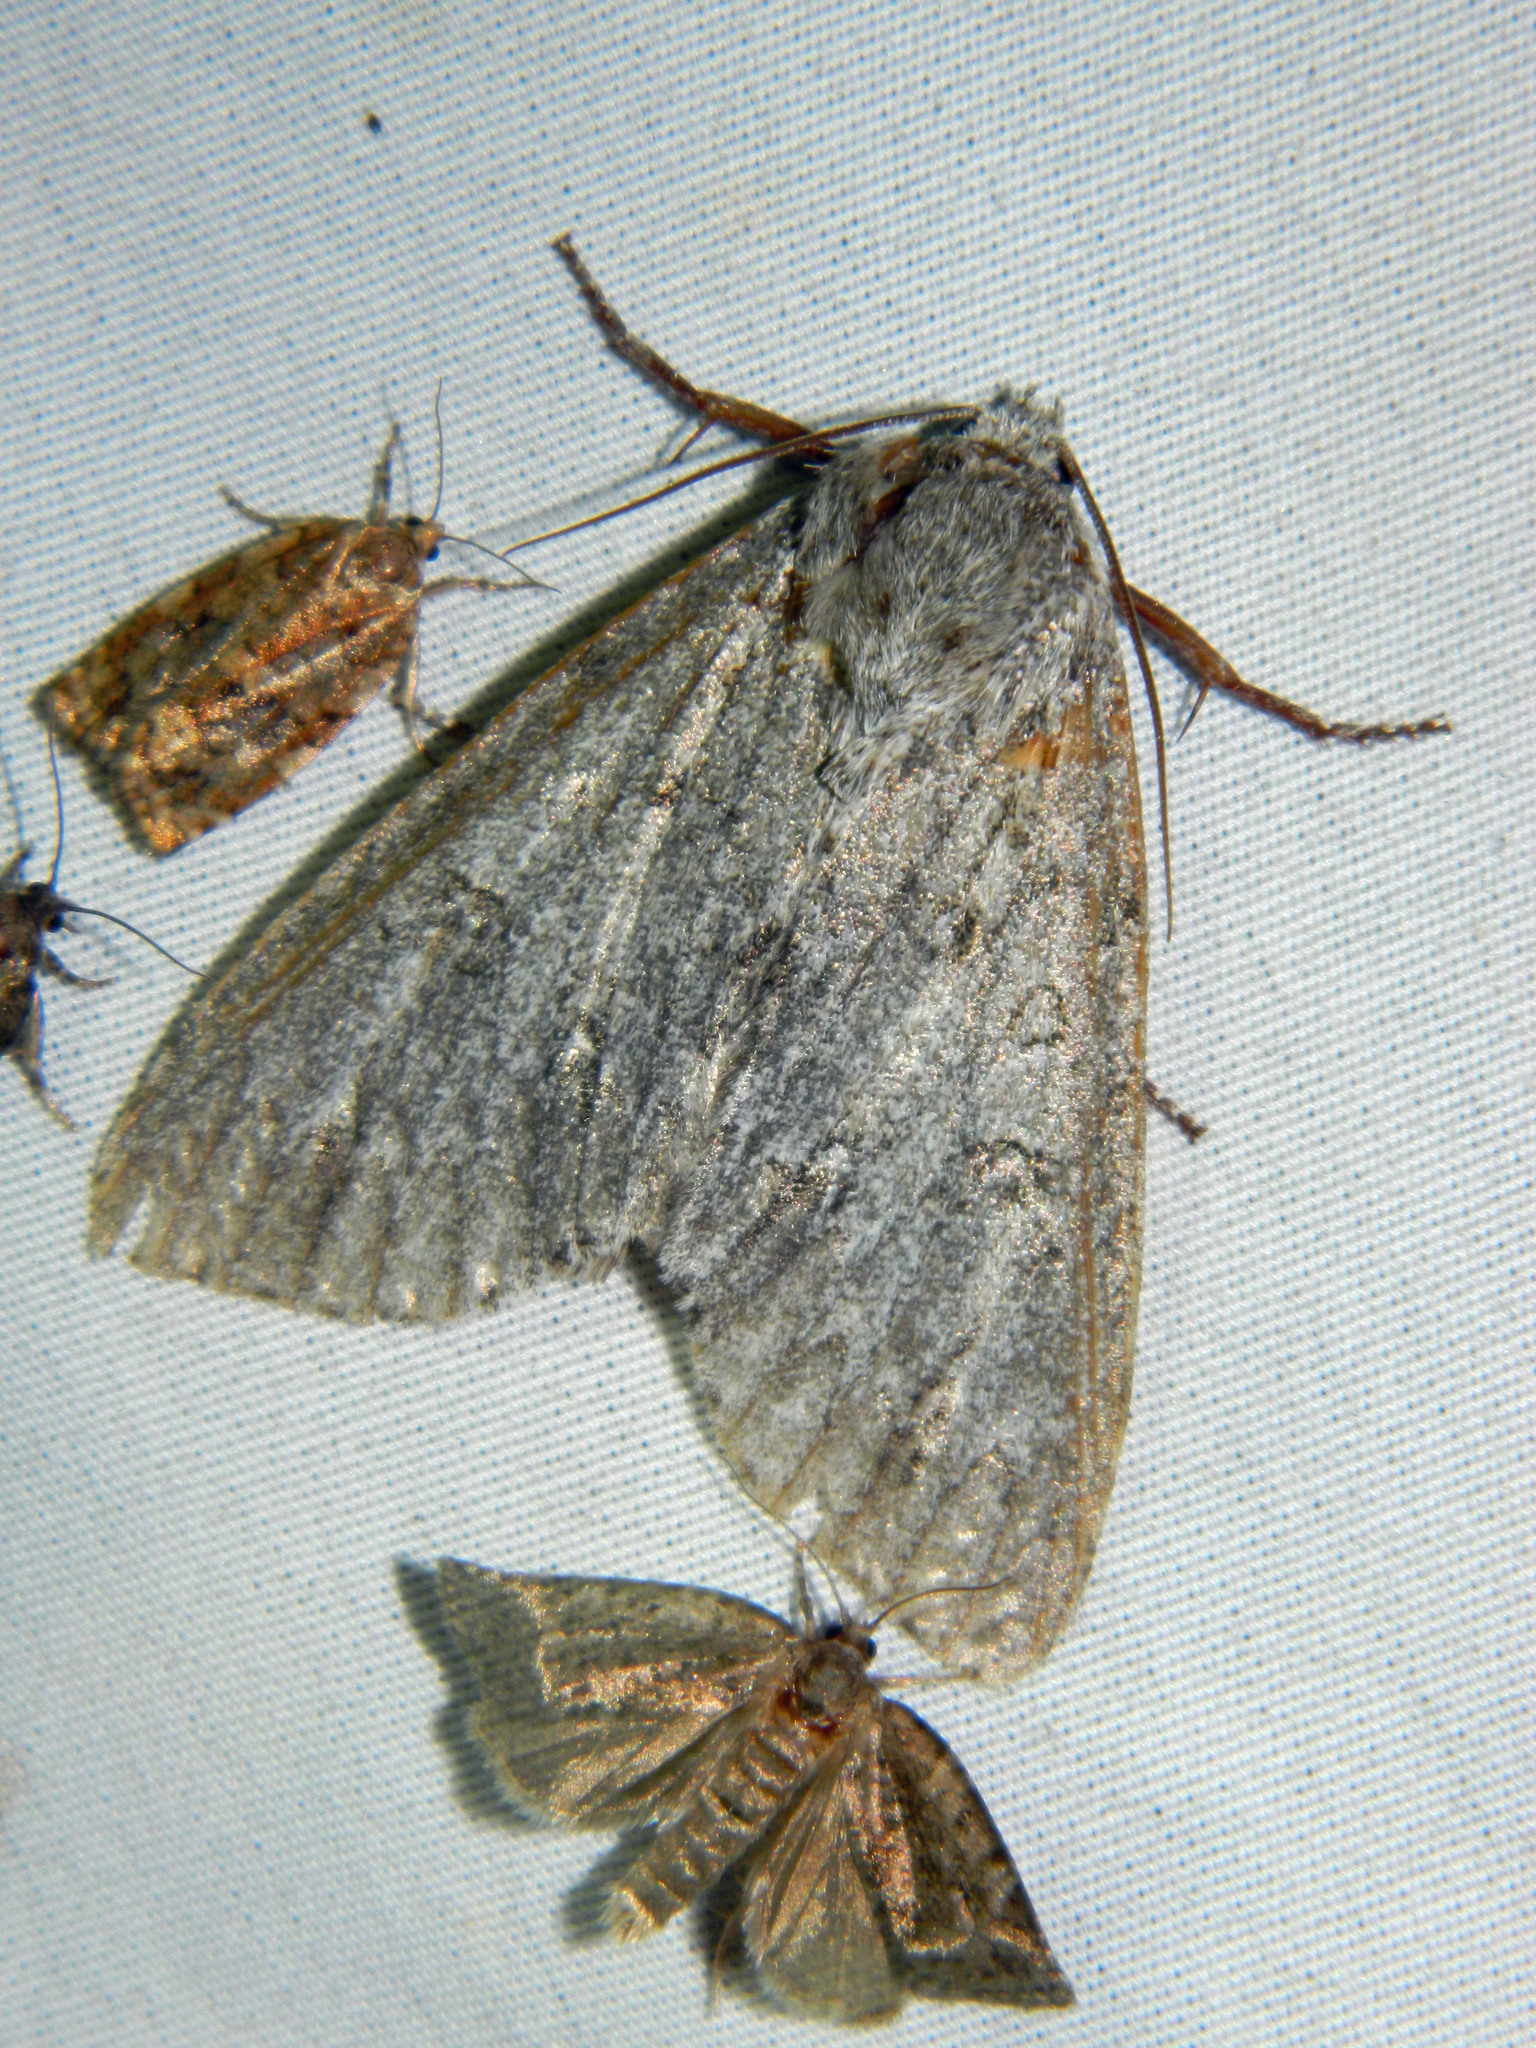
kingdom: Animalia
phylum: Arthropoda
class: Insecta
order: Lepidoptera
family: Noctuidae
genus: Acronicta
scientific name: Acronicta insita
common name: Large gray dagger
